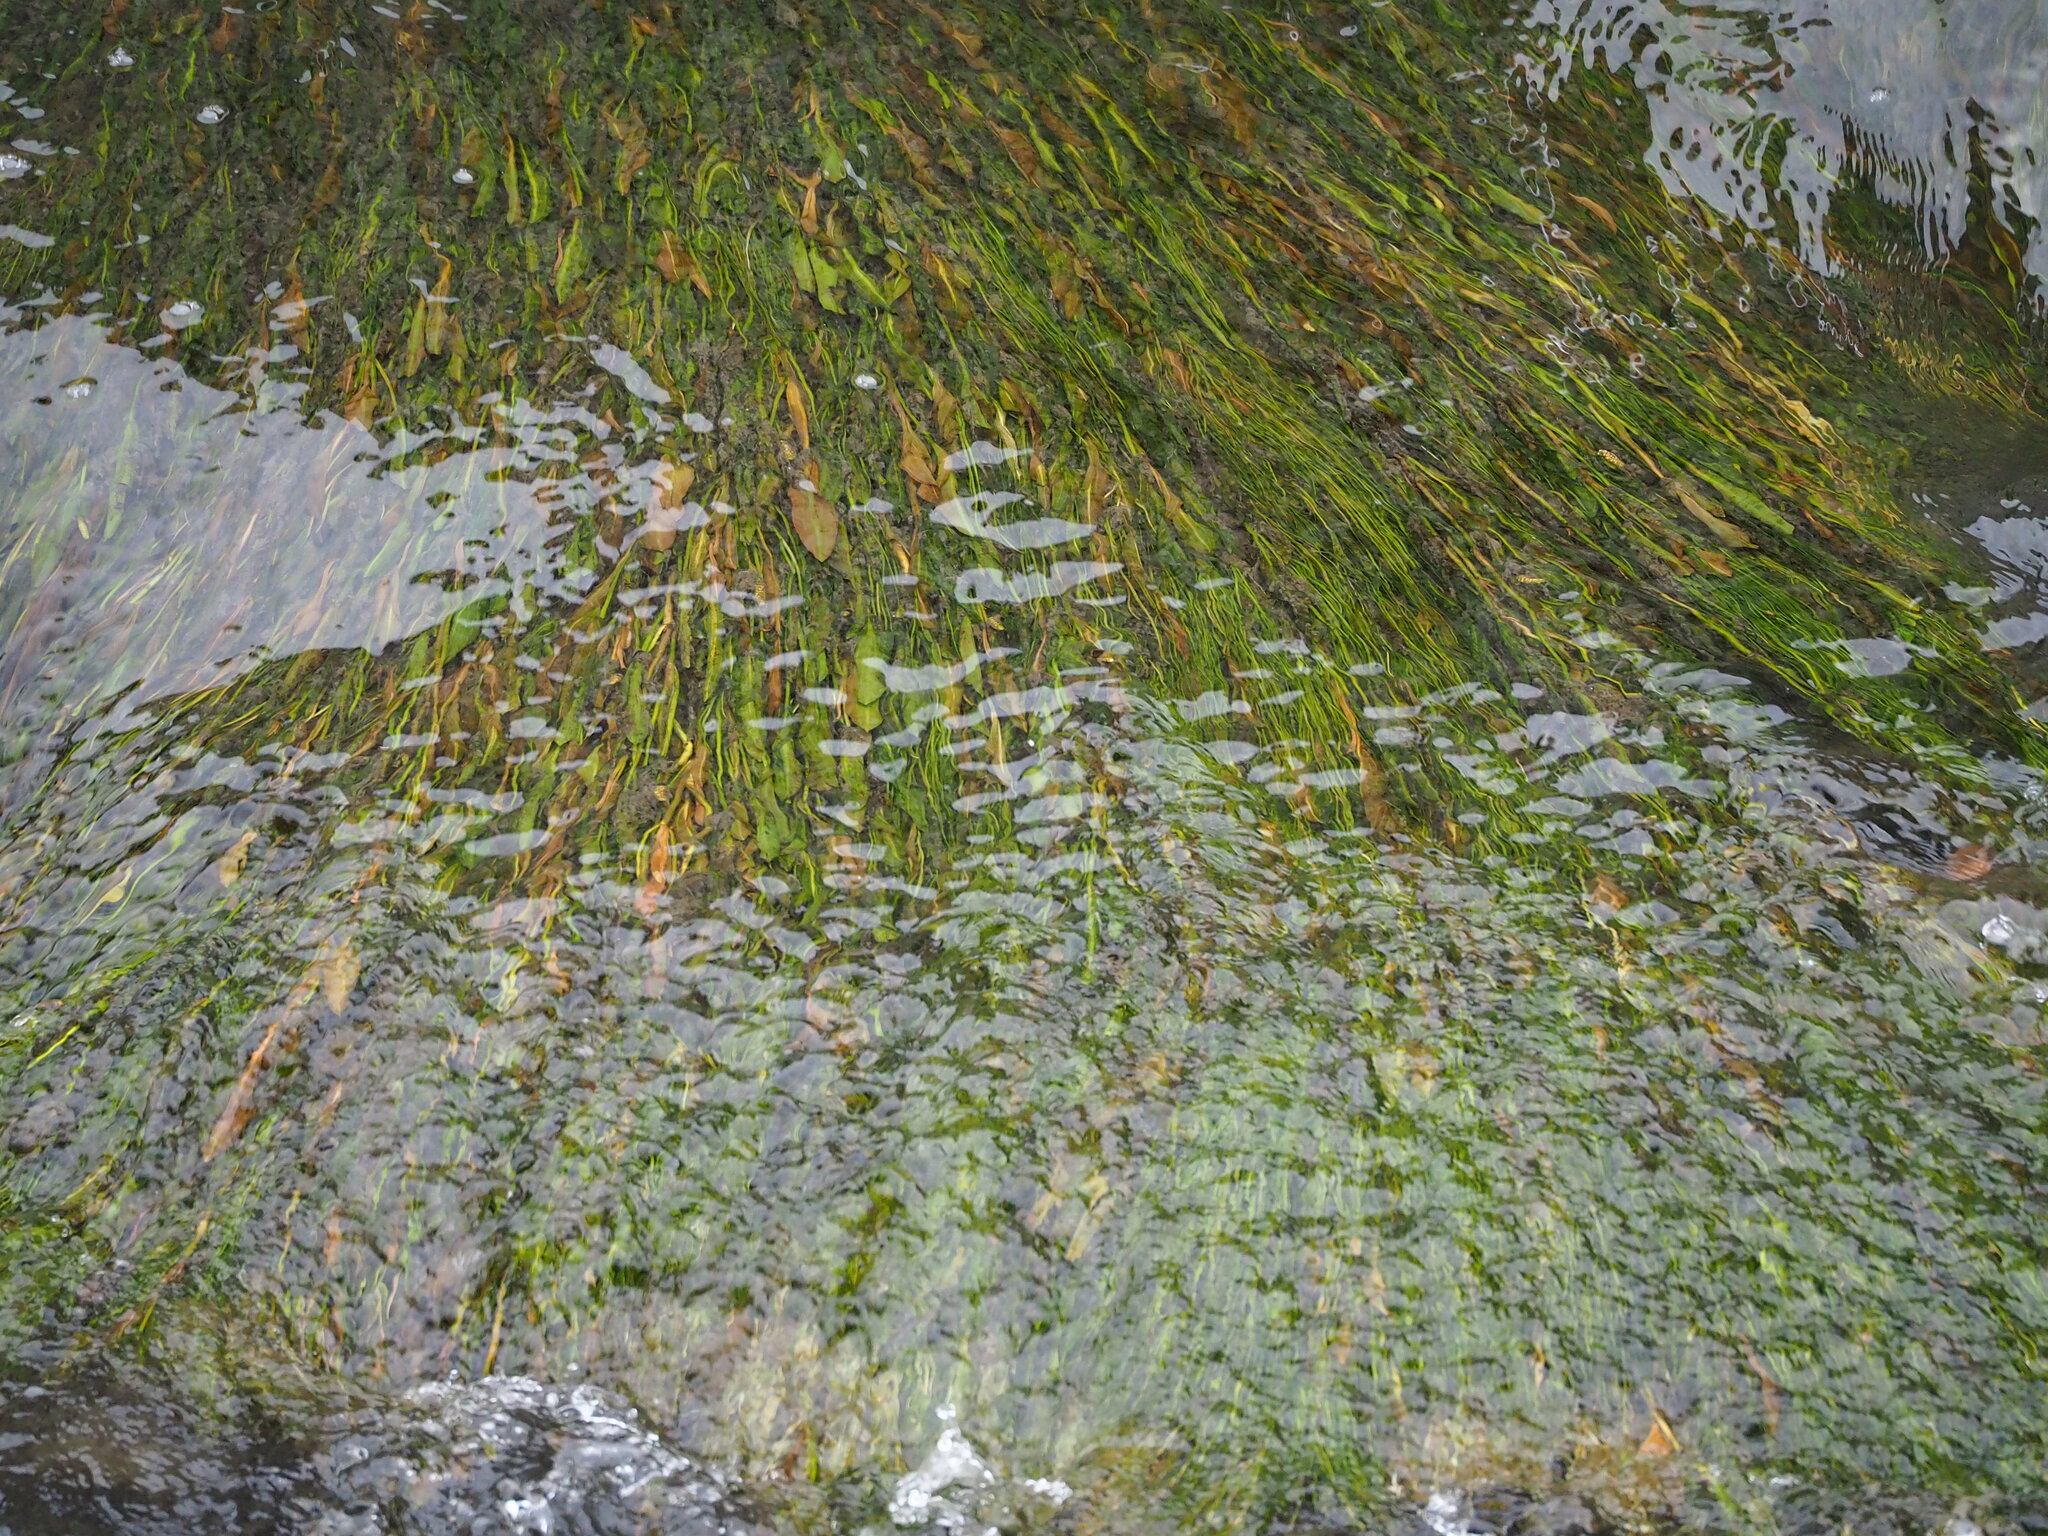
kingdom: Plantae
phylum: Tracheophyta
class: Liliopsida
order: Alismatales
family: Potamogetonaceae
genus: Potamogeton
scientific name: Potamogeton wrightii
